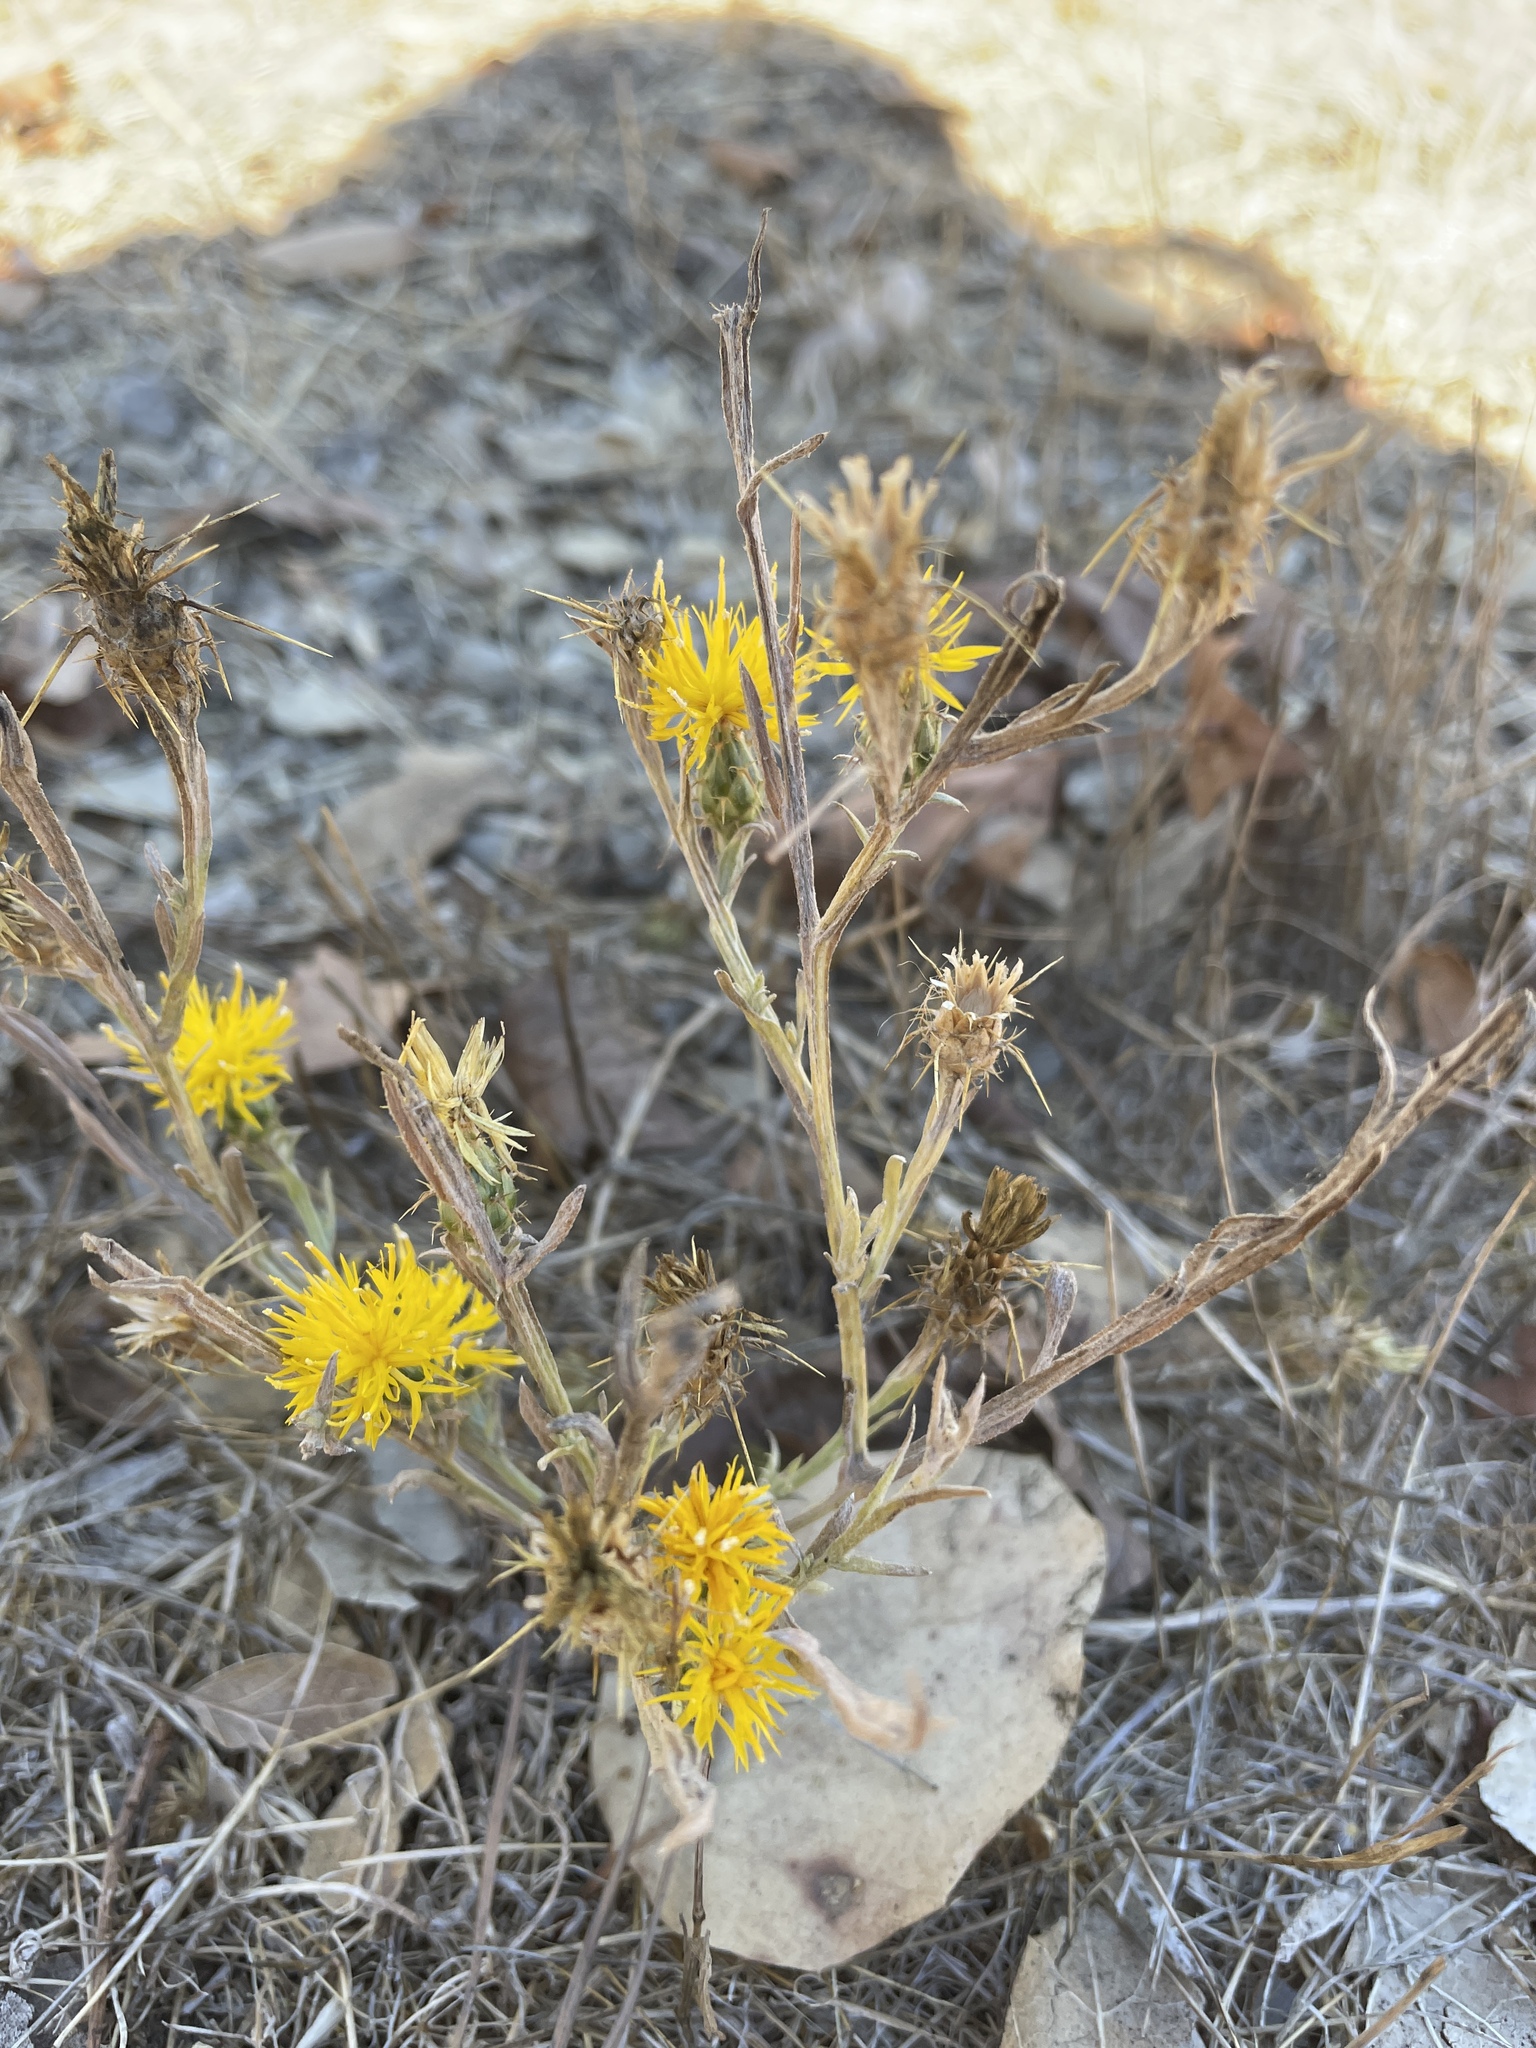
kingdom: Plantae
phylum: Tracheophyta
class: Magnoliopsida
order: Asterales
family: Asteraceae
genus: Centaurea
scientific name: Centaurea solstitialis
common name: Yellow star-thistle
